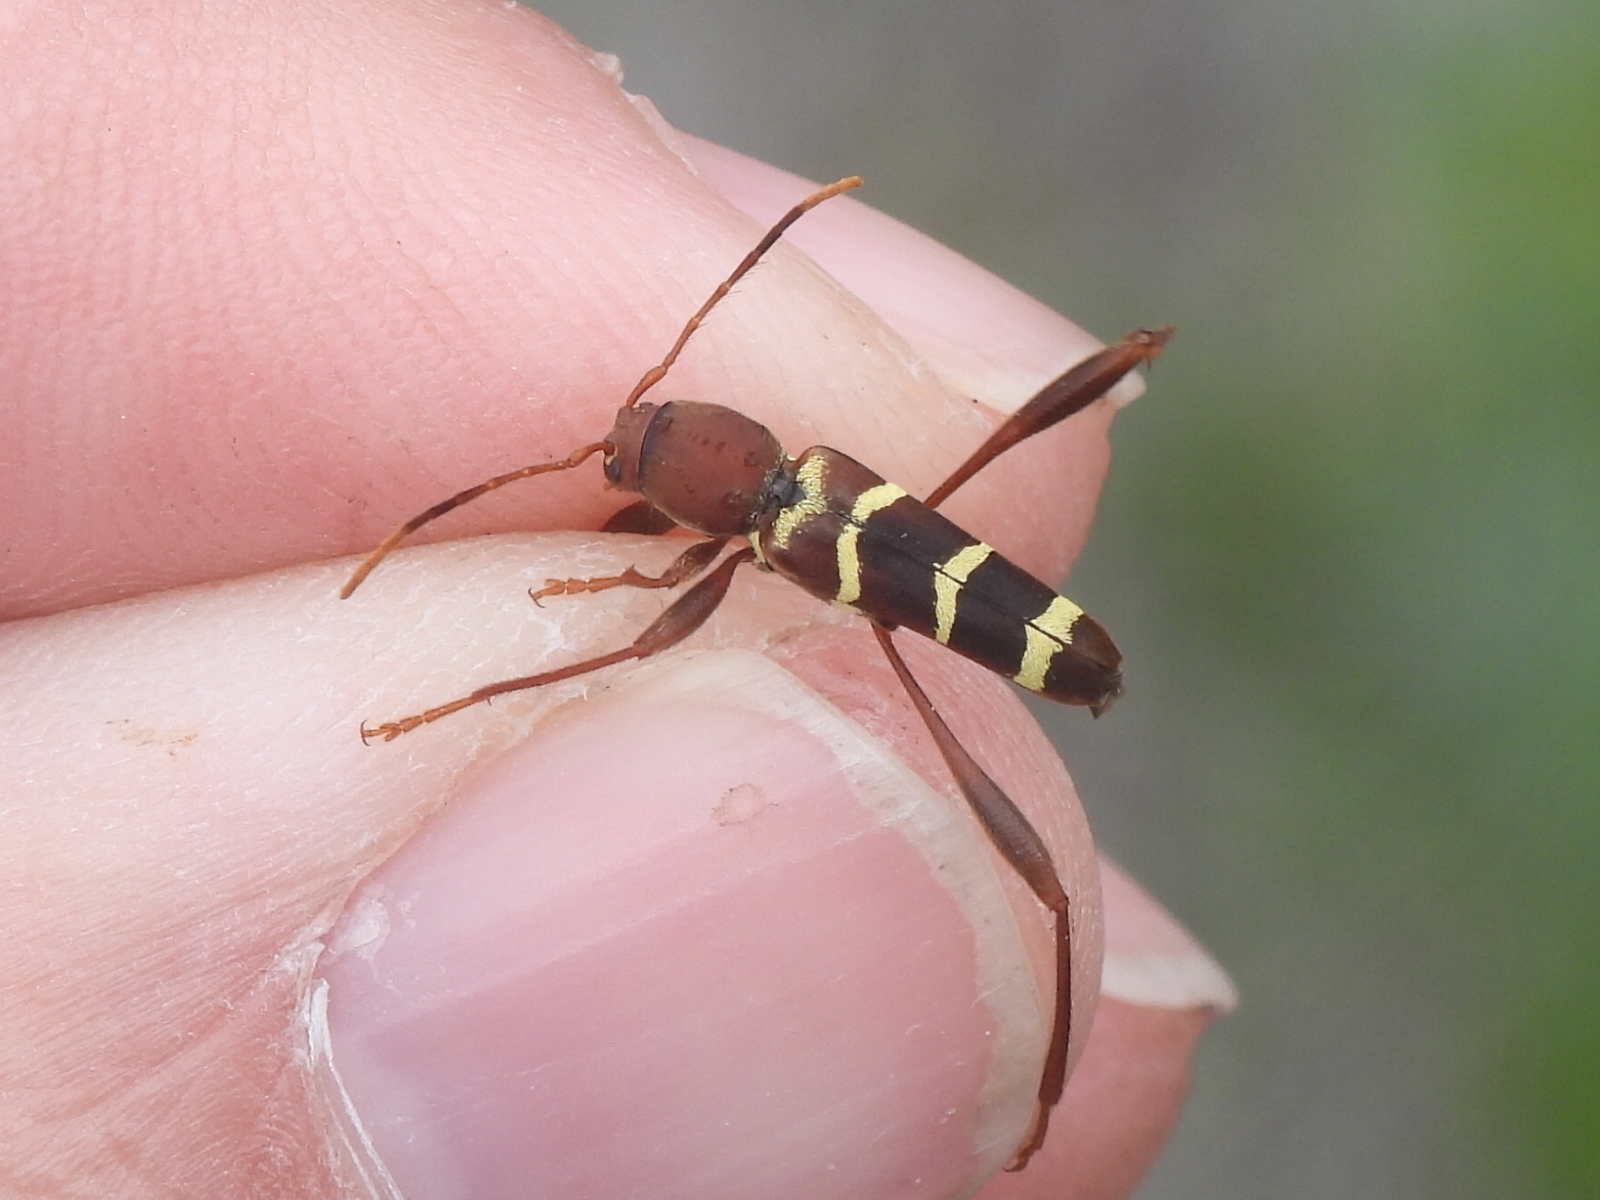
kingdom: Animalia
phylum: Arthropoda
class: Insecta
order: Coleoptera
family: Cerambycidae
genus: Neoclytus
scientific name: Neoclytus acuminatus
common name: Read-headed ash borer
